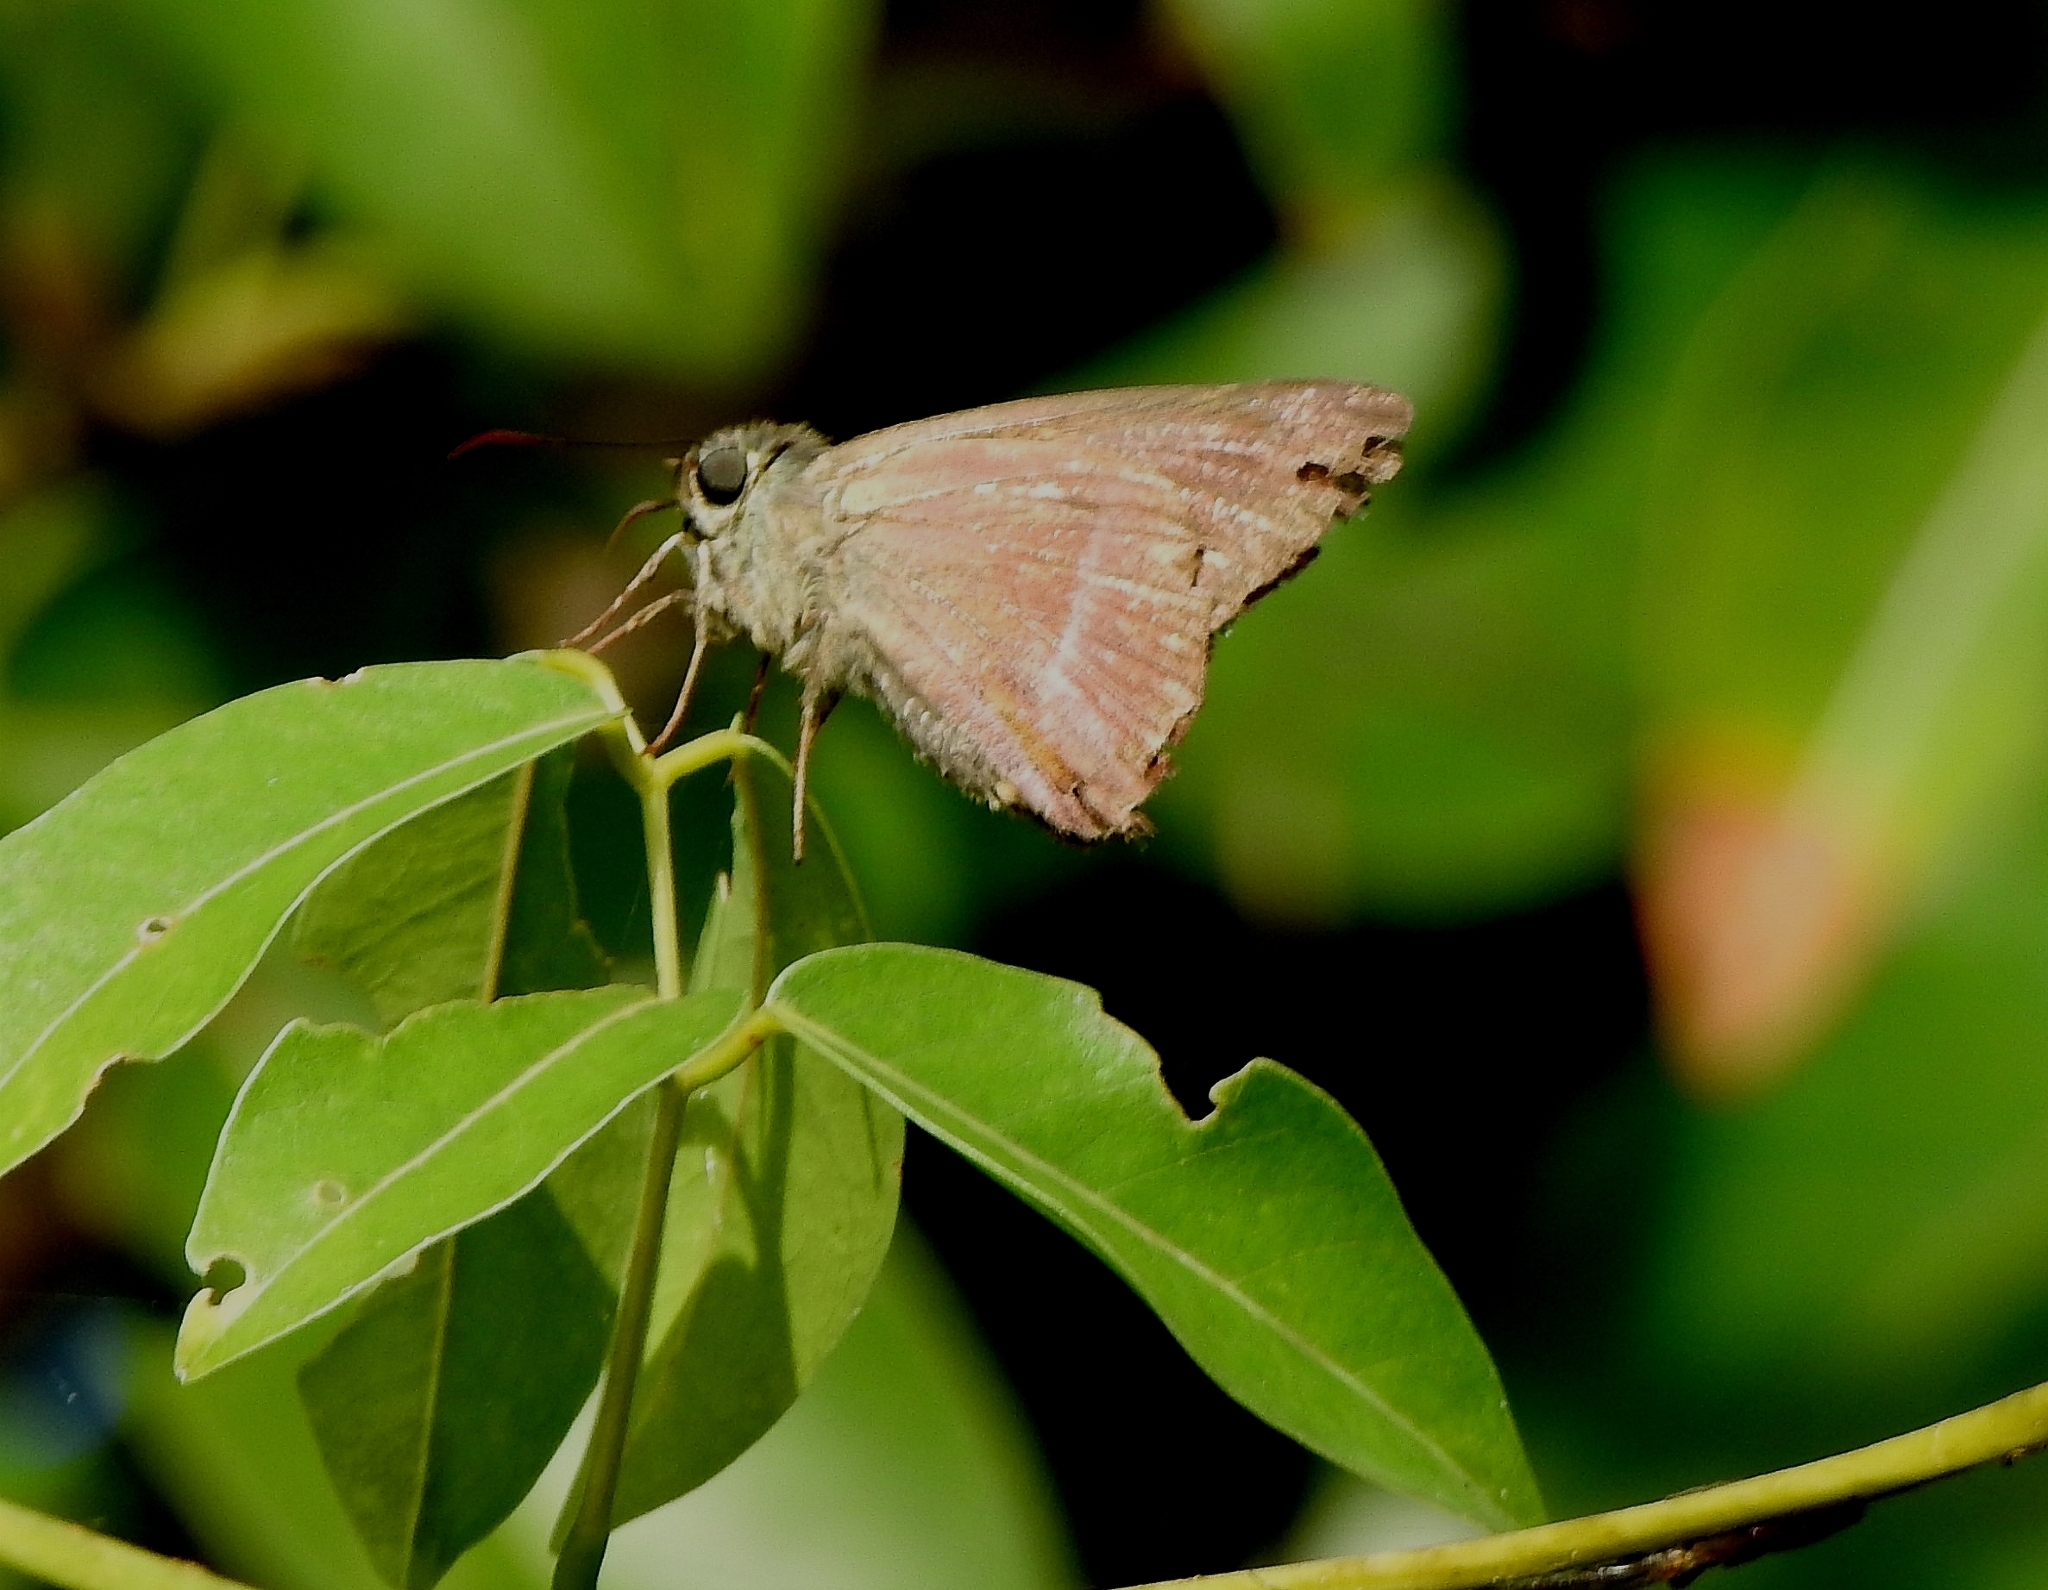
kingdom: Animalia
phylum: Arthropoda
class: Insecta
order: Lepidoptera
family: Hesperiidae
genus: Hasora
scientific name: Hasora chromus
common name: Common banded awl
